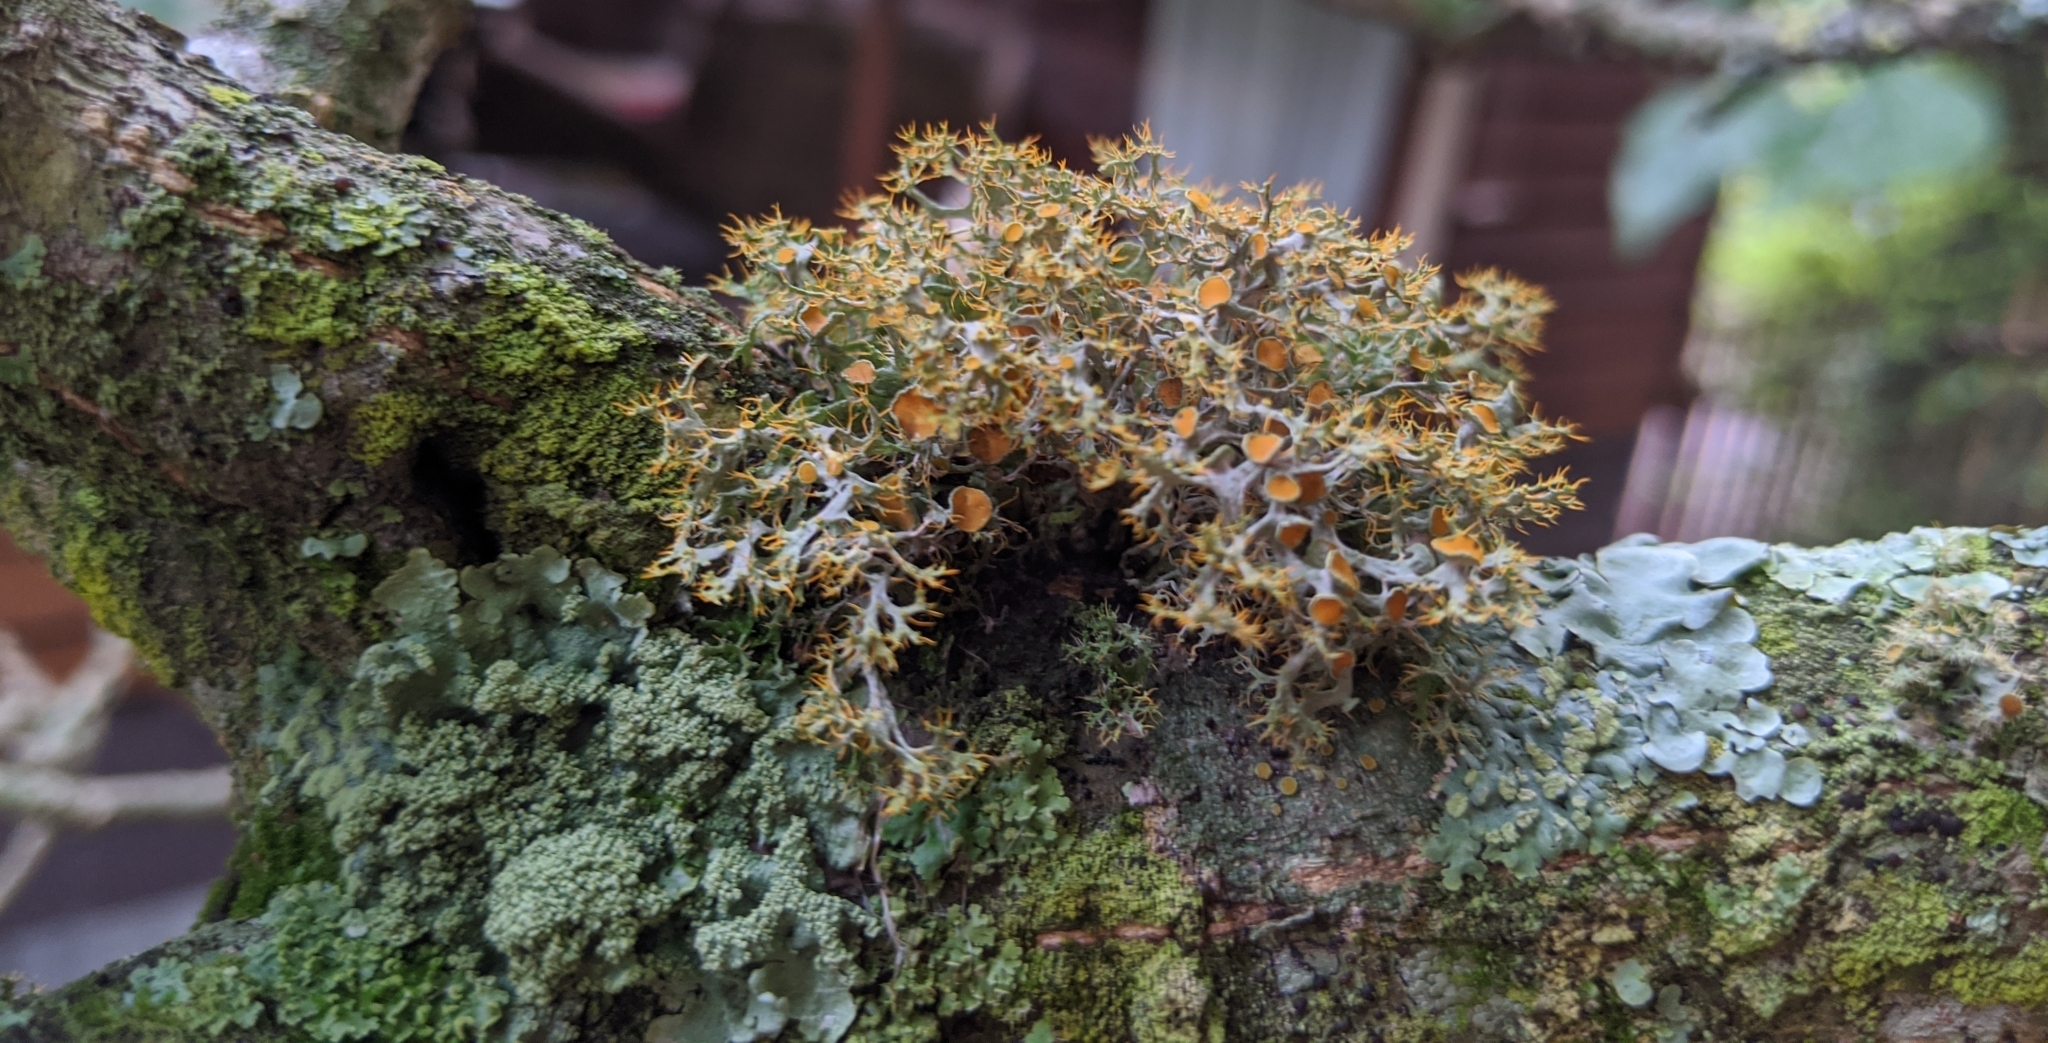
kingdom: Fungi
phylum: Ascomycota
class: Lecanoromycetes
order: Teloschistales
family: Teloschistaceae
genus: Teloschistes
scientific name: Teloschistes pulvinaris
